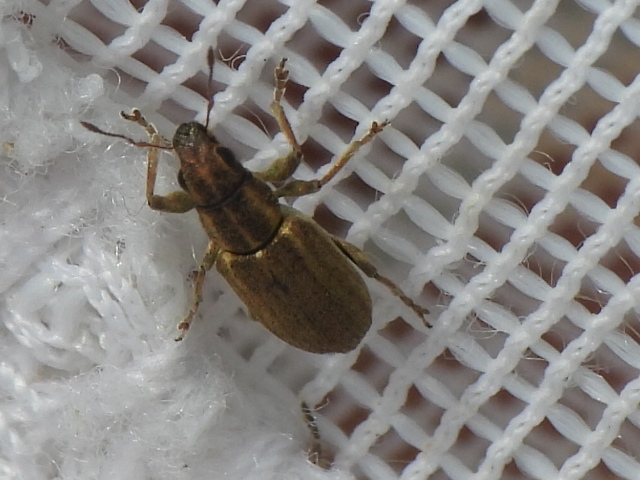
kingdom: Animalia
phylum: Arthropoda
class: Insecta
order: Coleoptera
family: Curculionidae
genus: Sitona
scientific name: Sitona lineatus
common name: Weevil
